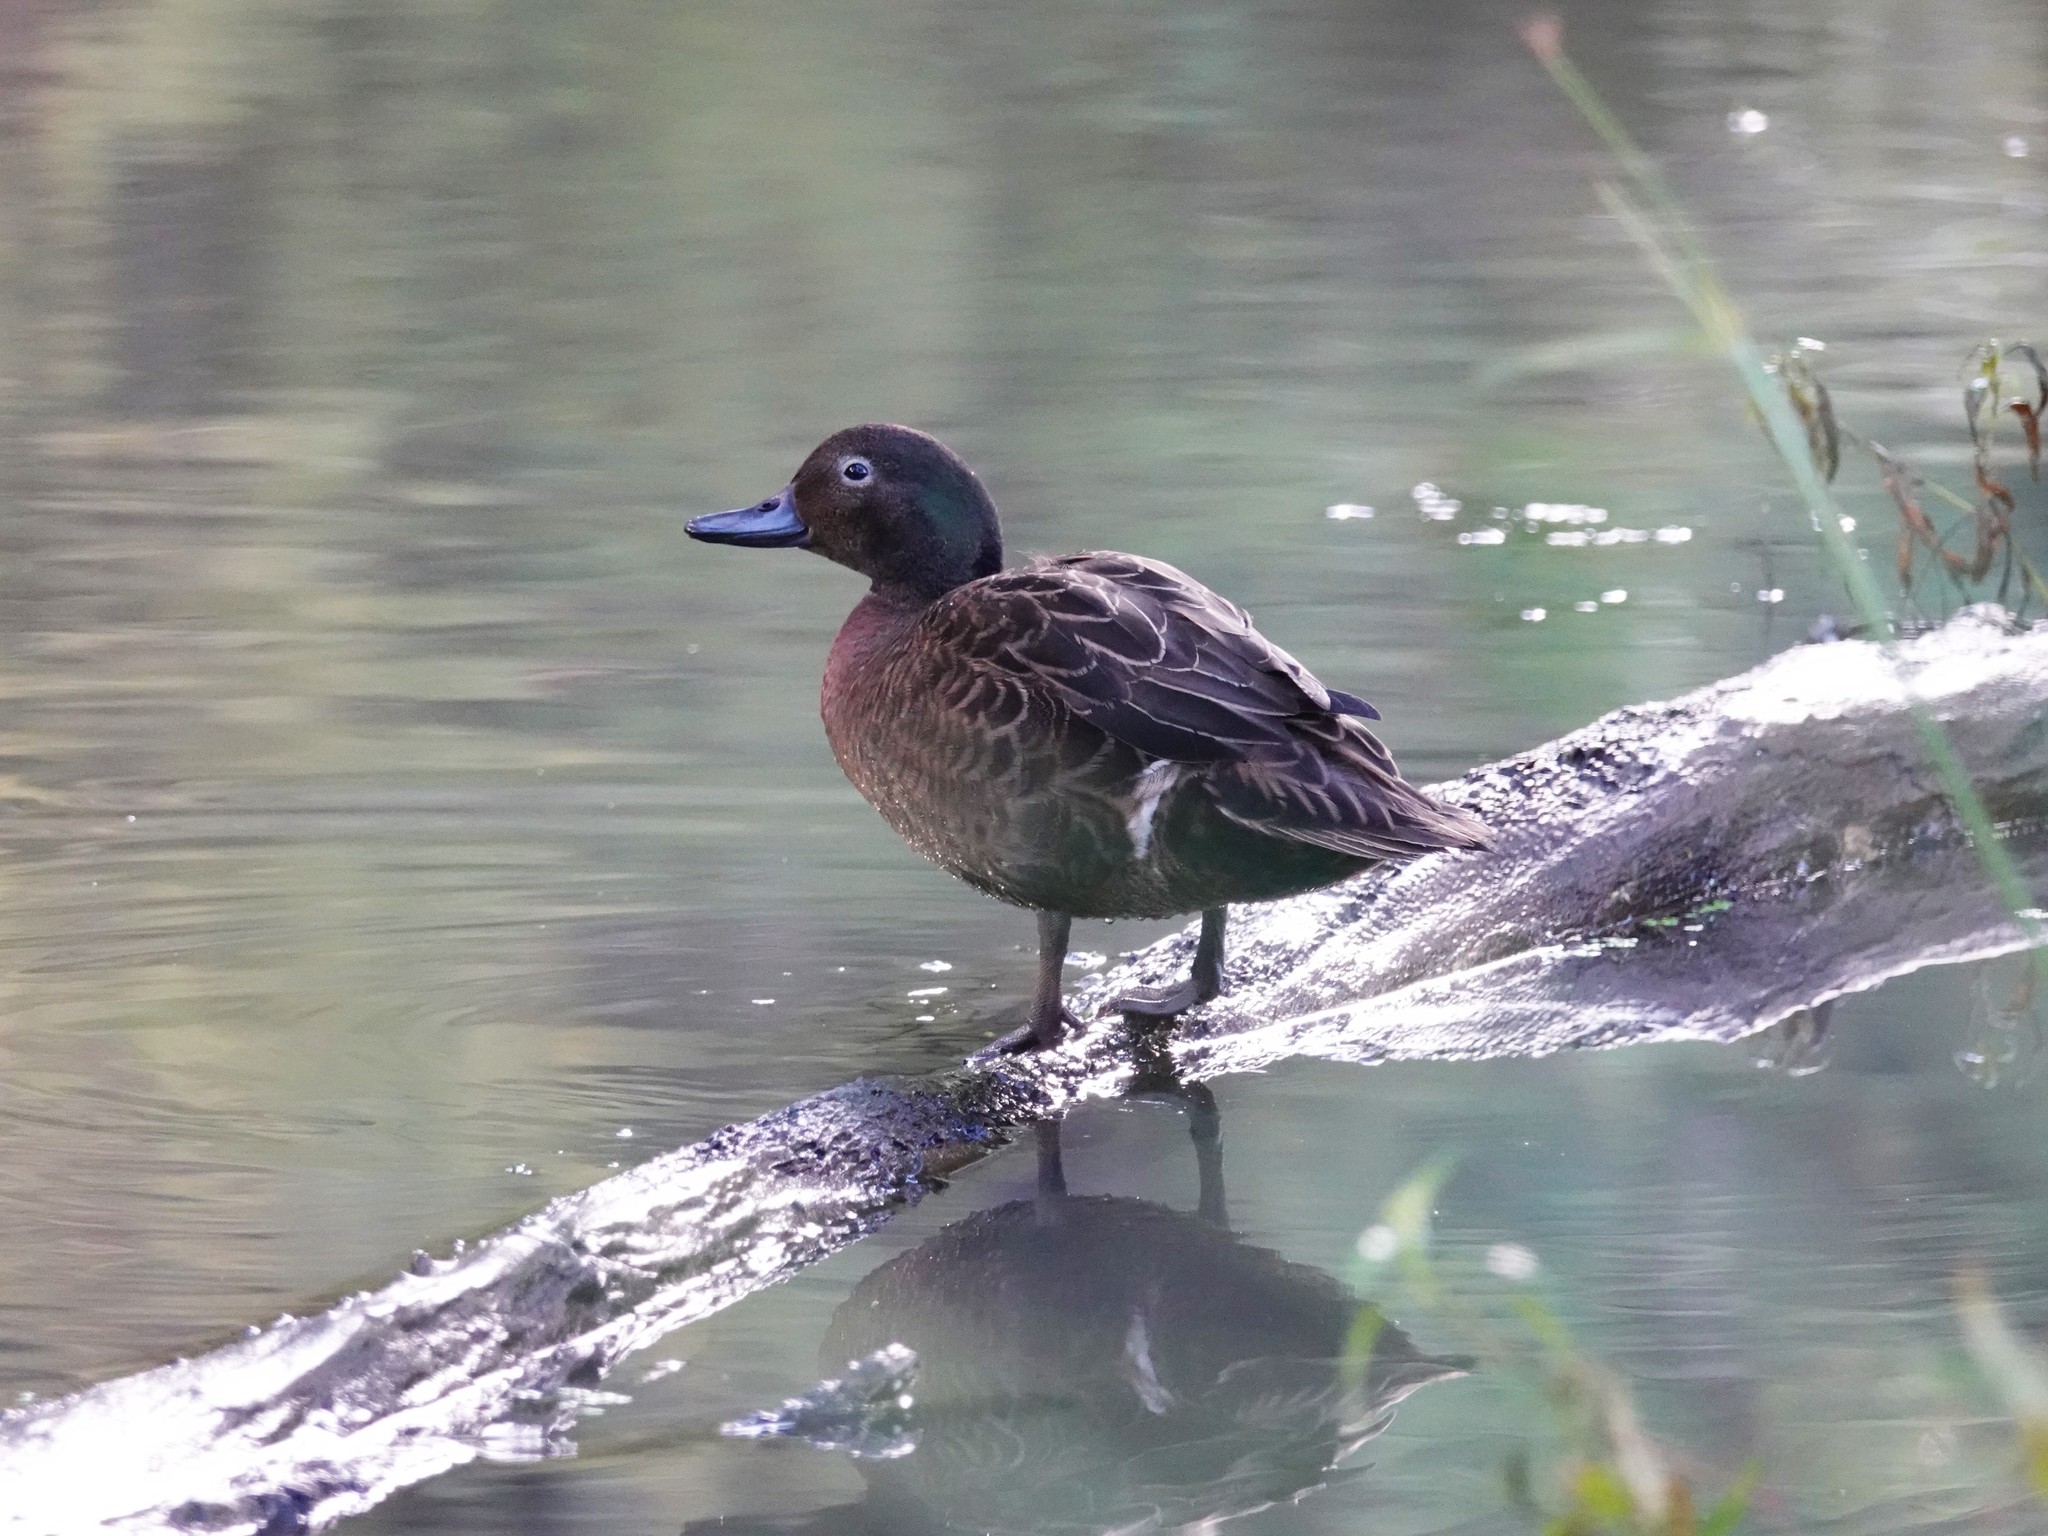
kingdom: Animalia
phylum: Chordata
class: Aves
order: Anseriformes
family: Anatidae
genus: Anas
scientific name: Anas chlorotis
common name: Brown teal
